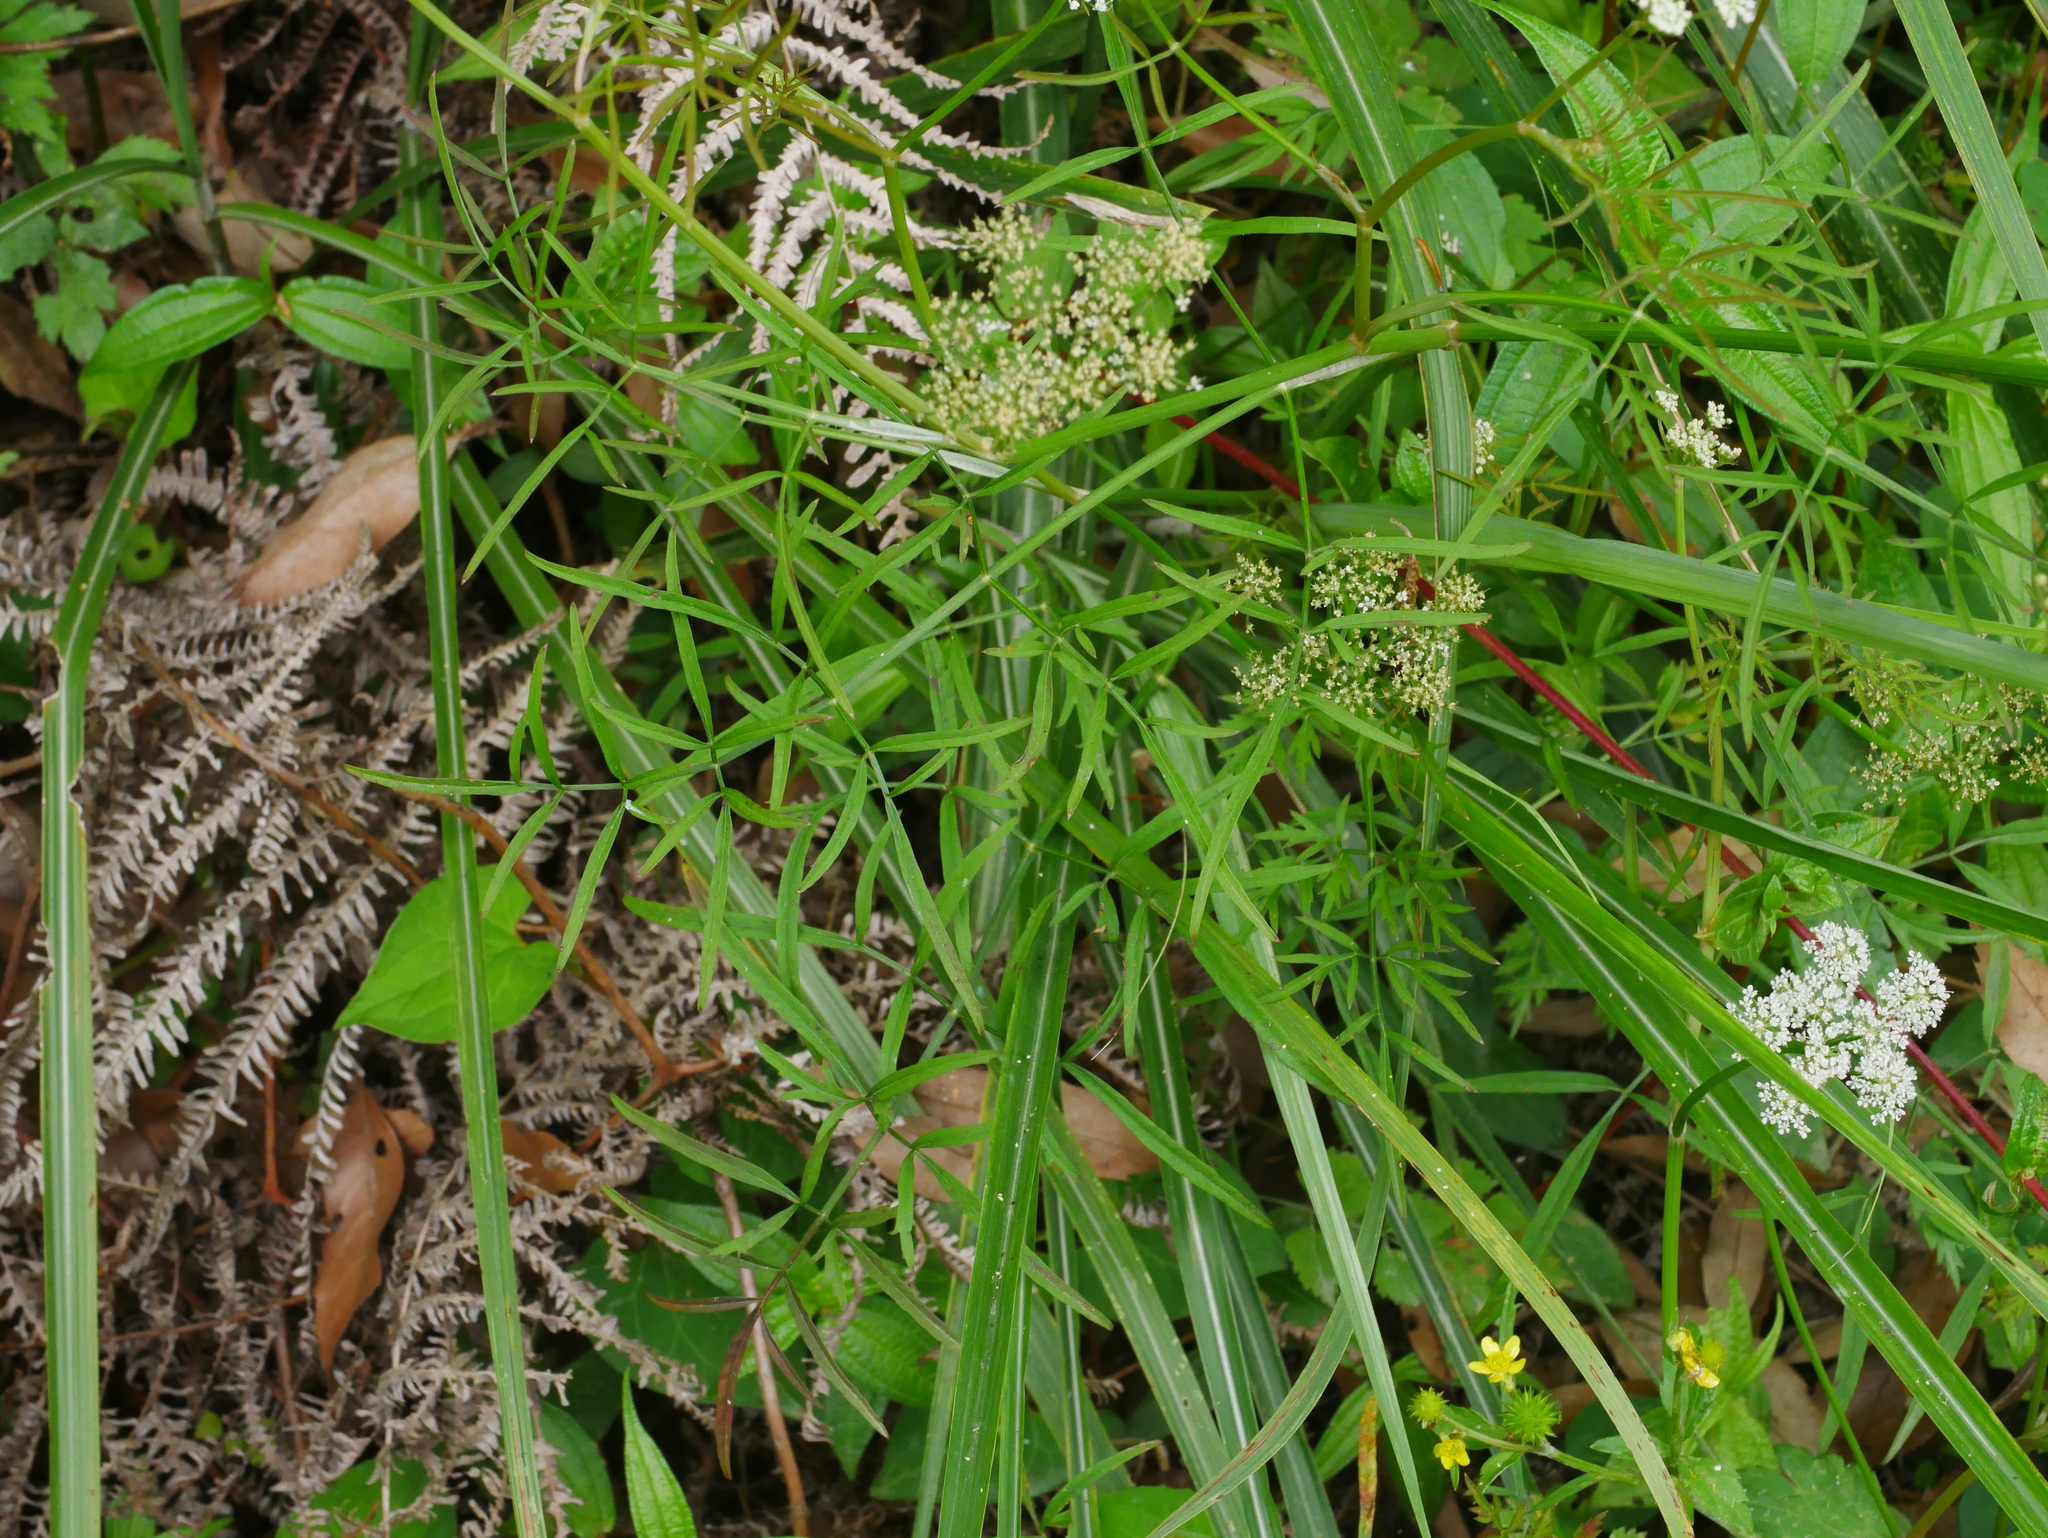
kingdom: Plantae
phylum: Tracheophyta
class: Magnoliopsida
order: Apiales
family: Apiaceae
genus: Oenanthe
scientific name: Oenanthe javanica
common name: Java water-dropwort
